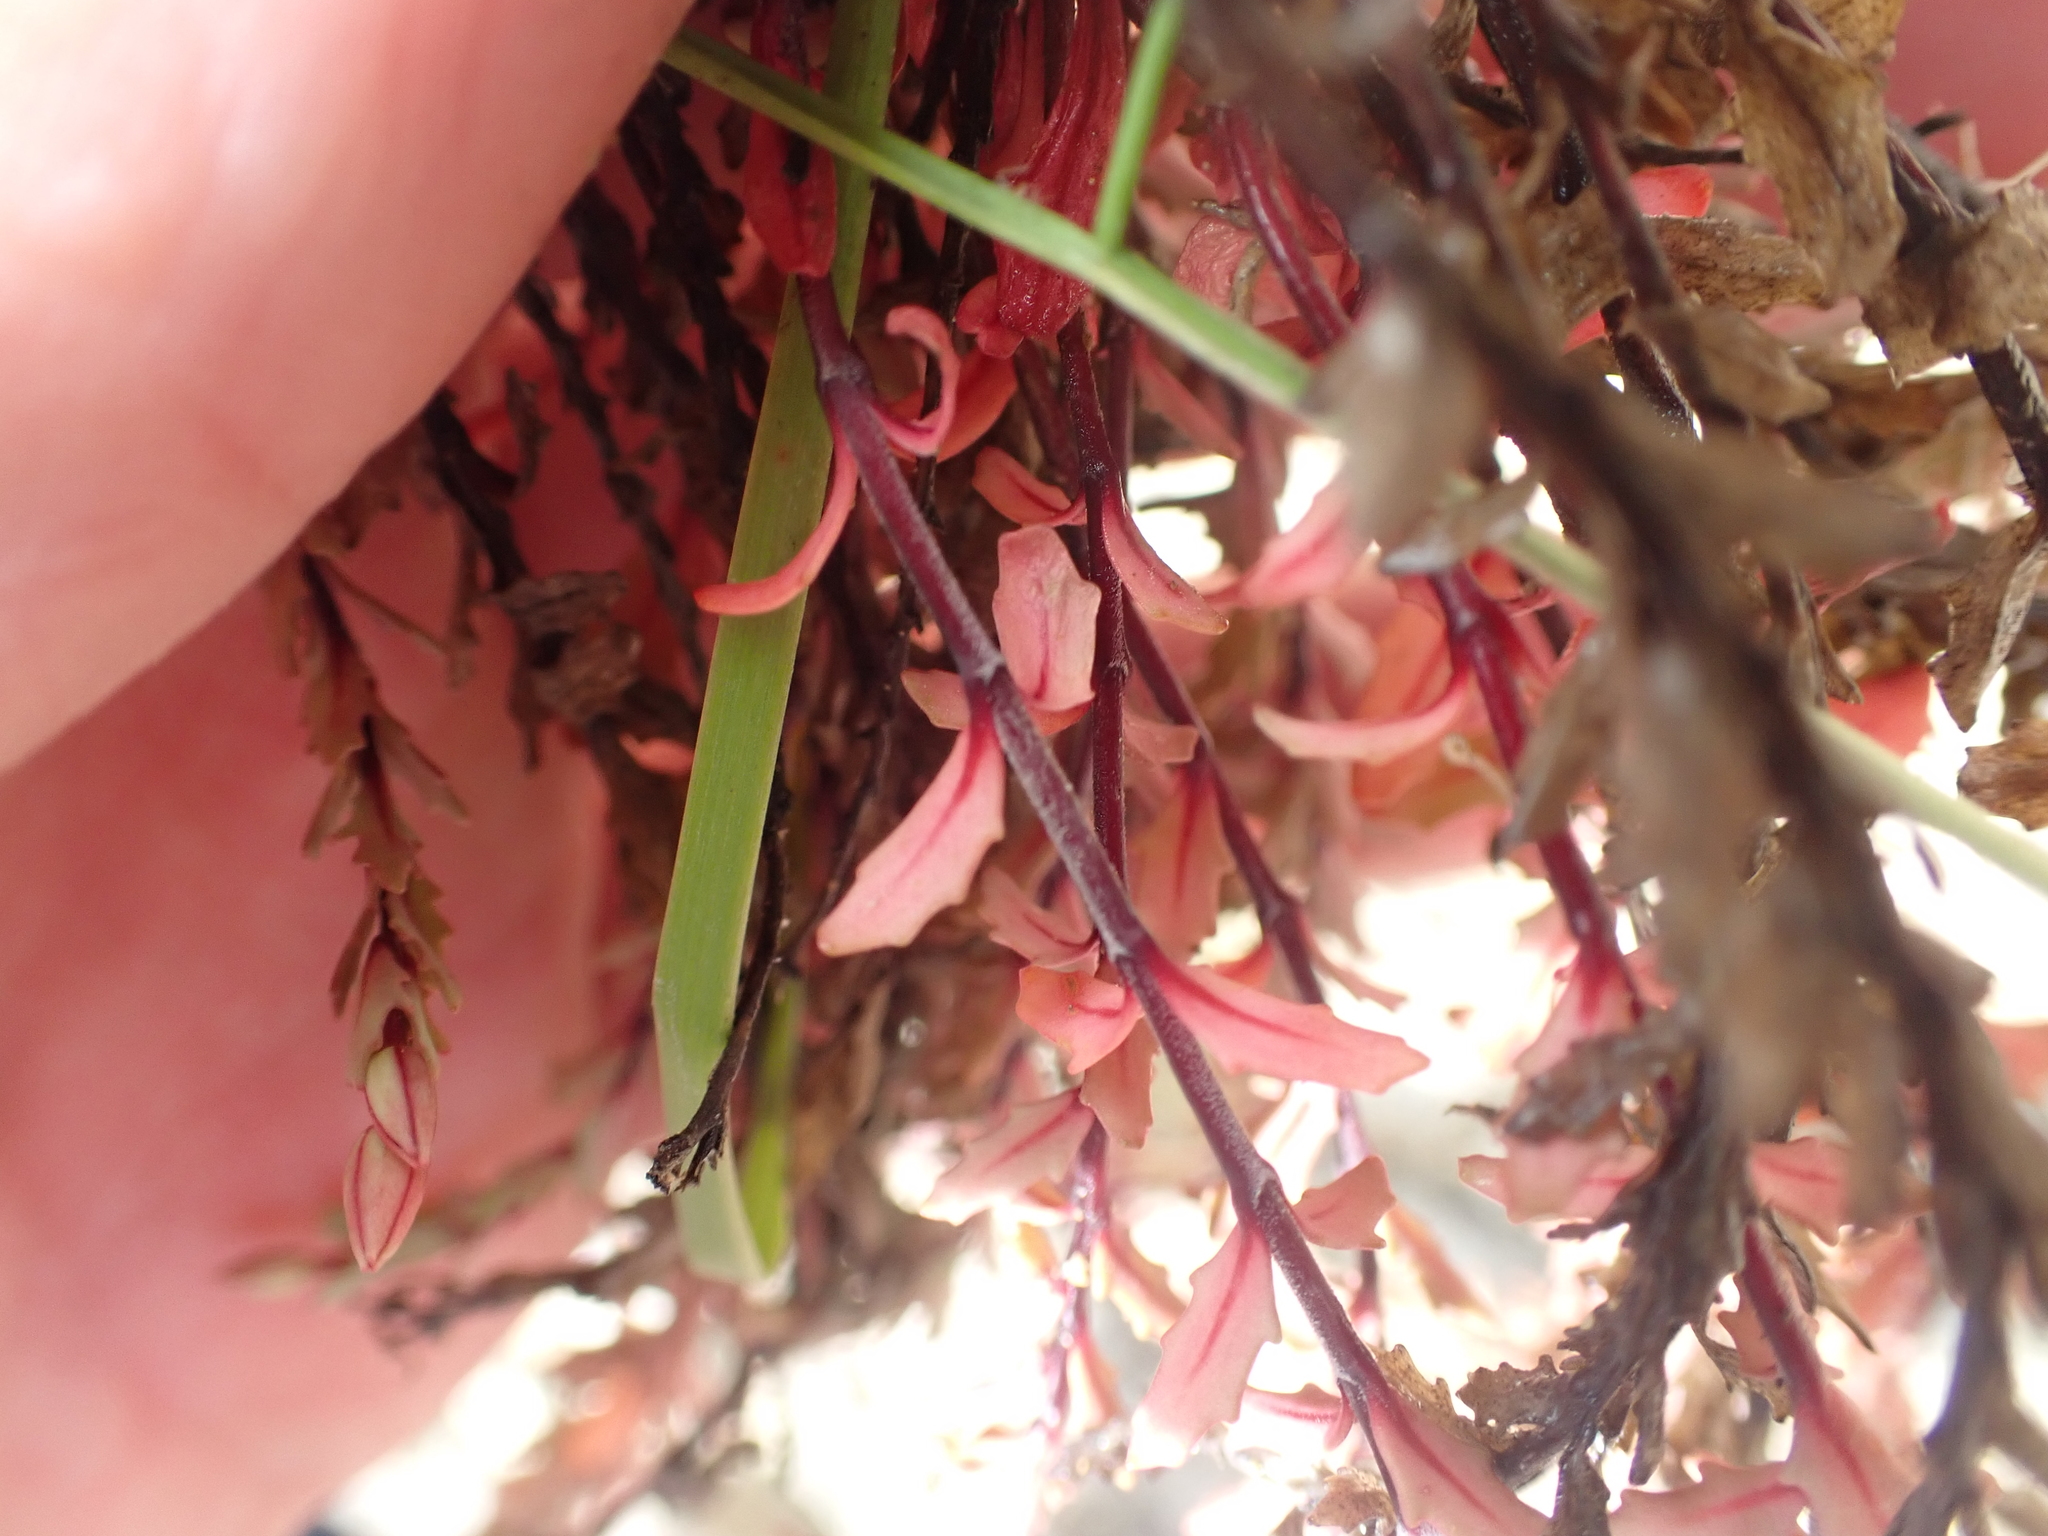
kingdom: Plantae
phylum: Tracheophyta
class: Magnoliopsida
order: Myrtales
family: Onagraceae
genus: Epilobium
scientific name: Epilobium melanocaulon
